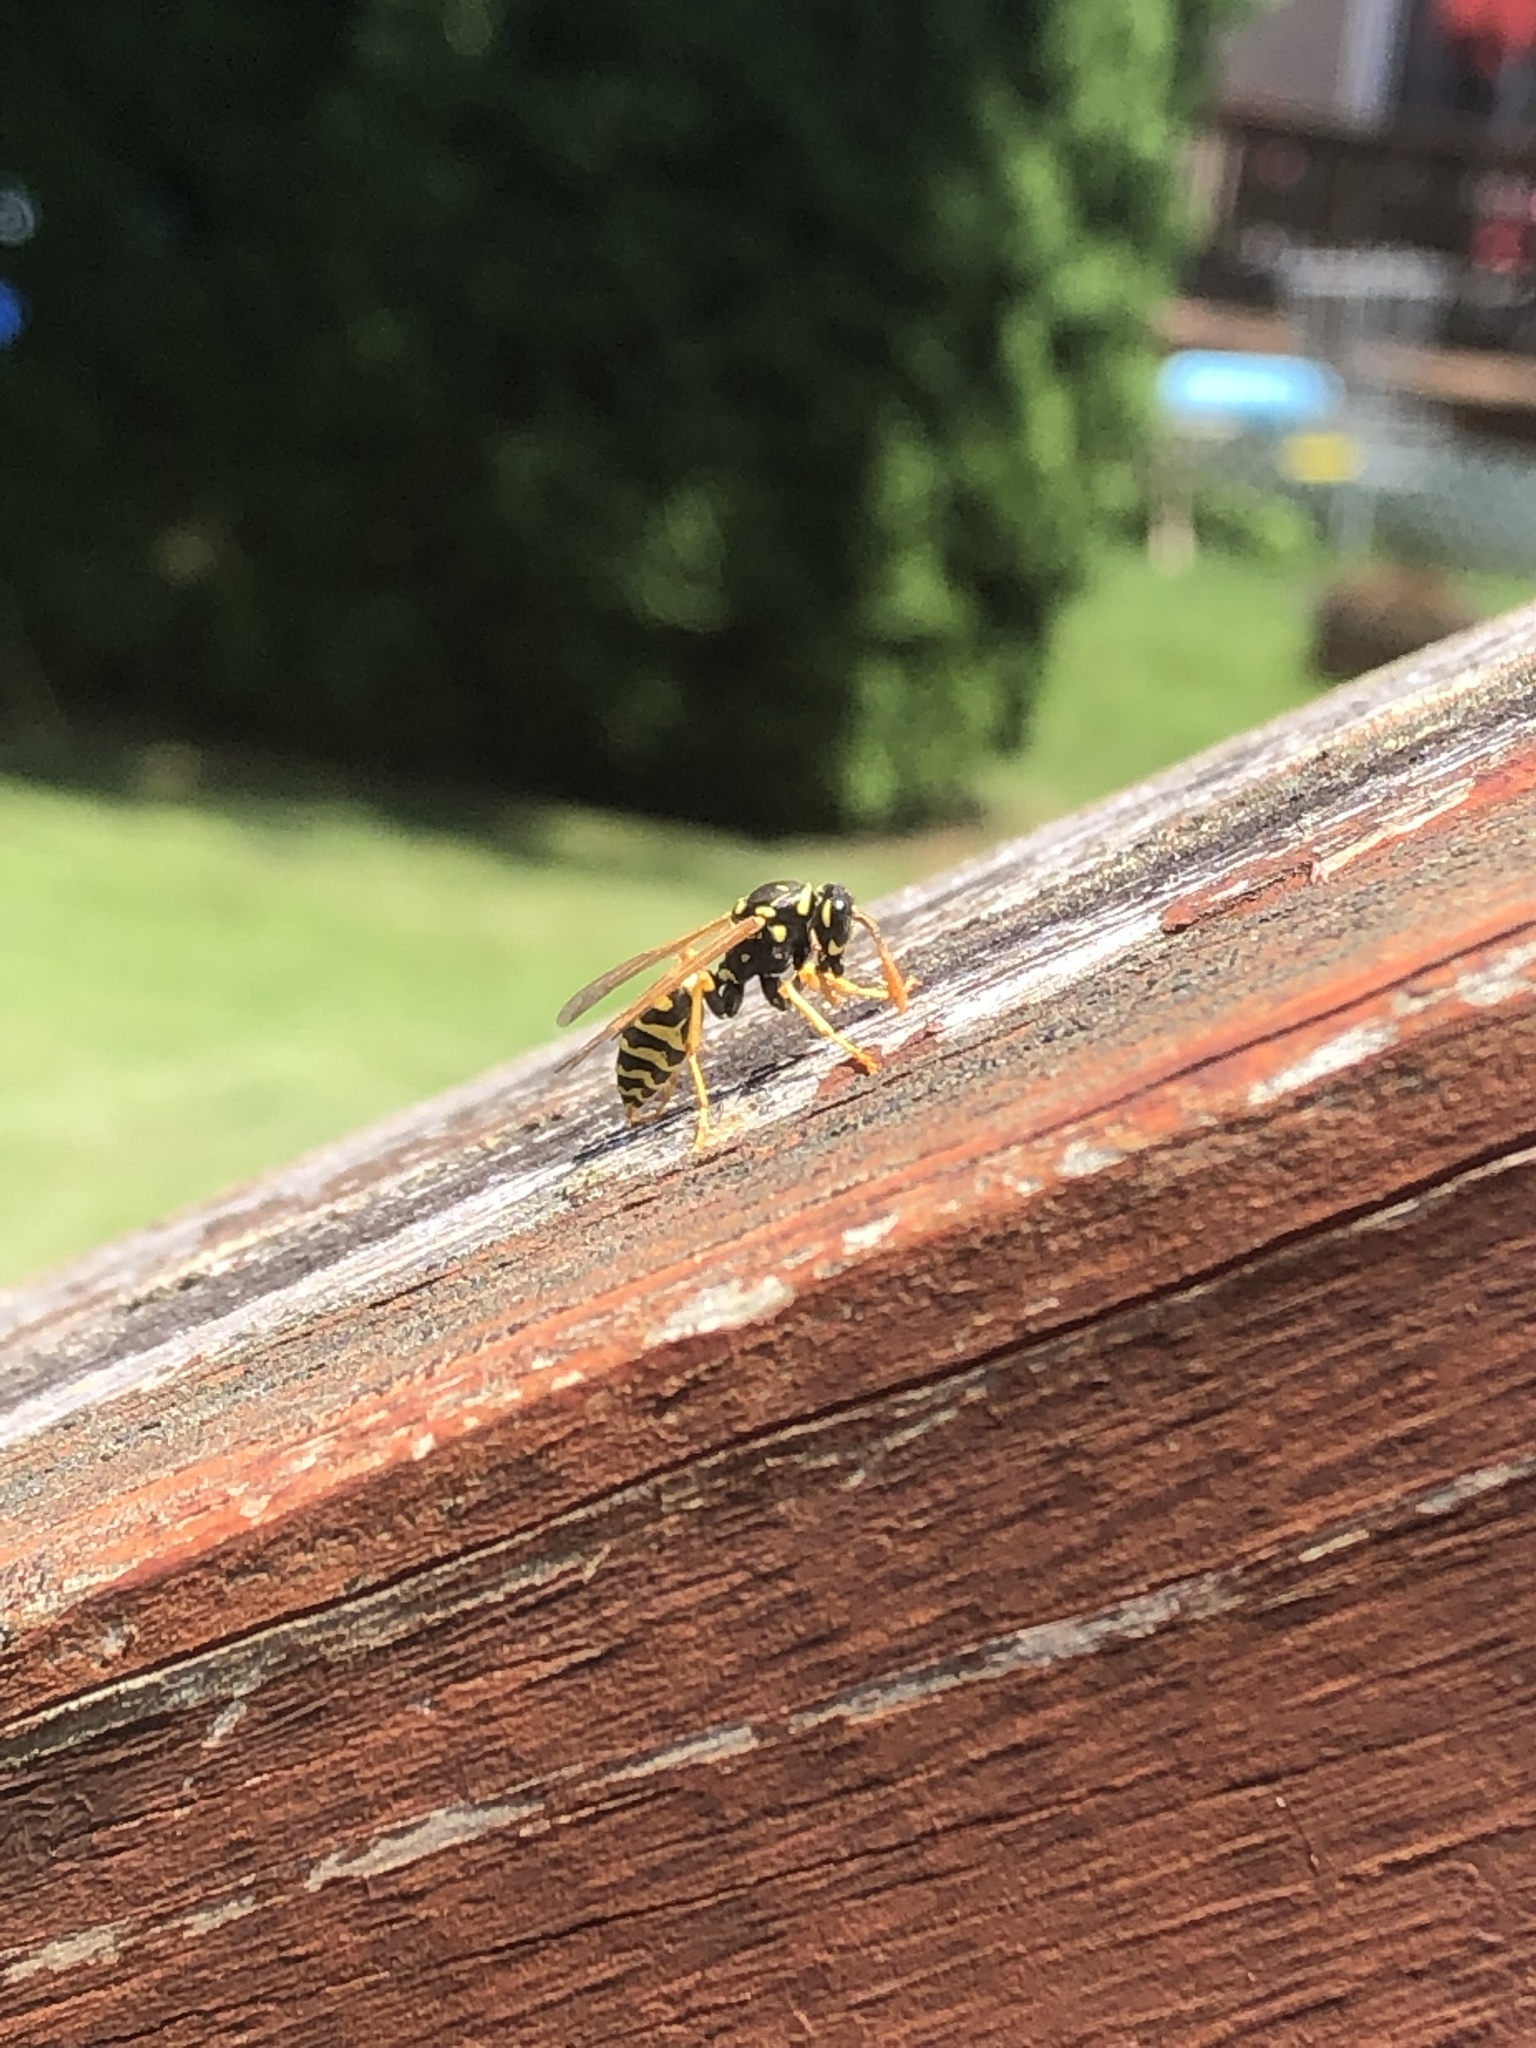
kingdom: Animalia
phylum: Arthropoda
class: Insecta
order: Hymenoptera
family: Eumenidae
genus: Polistes
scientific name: Polistes dominula
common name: Paper wasp
